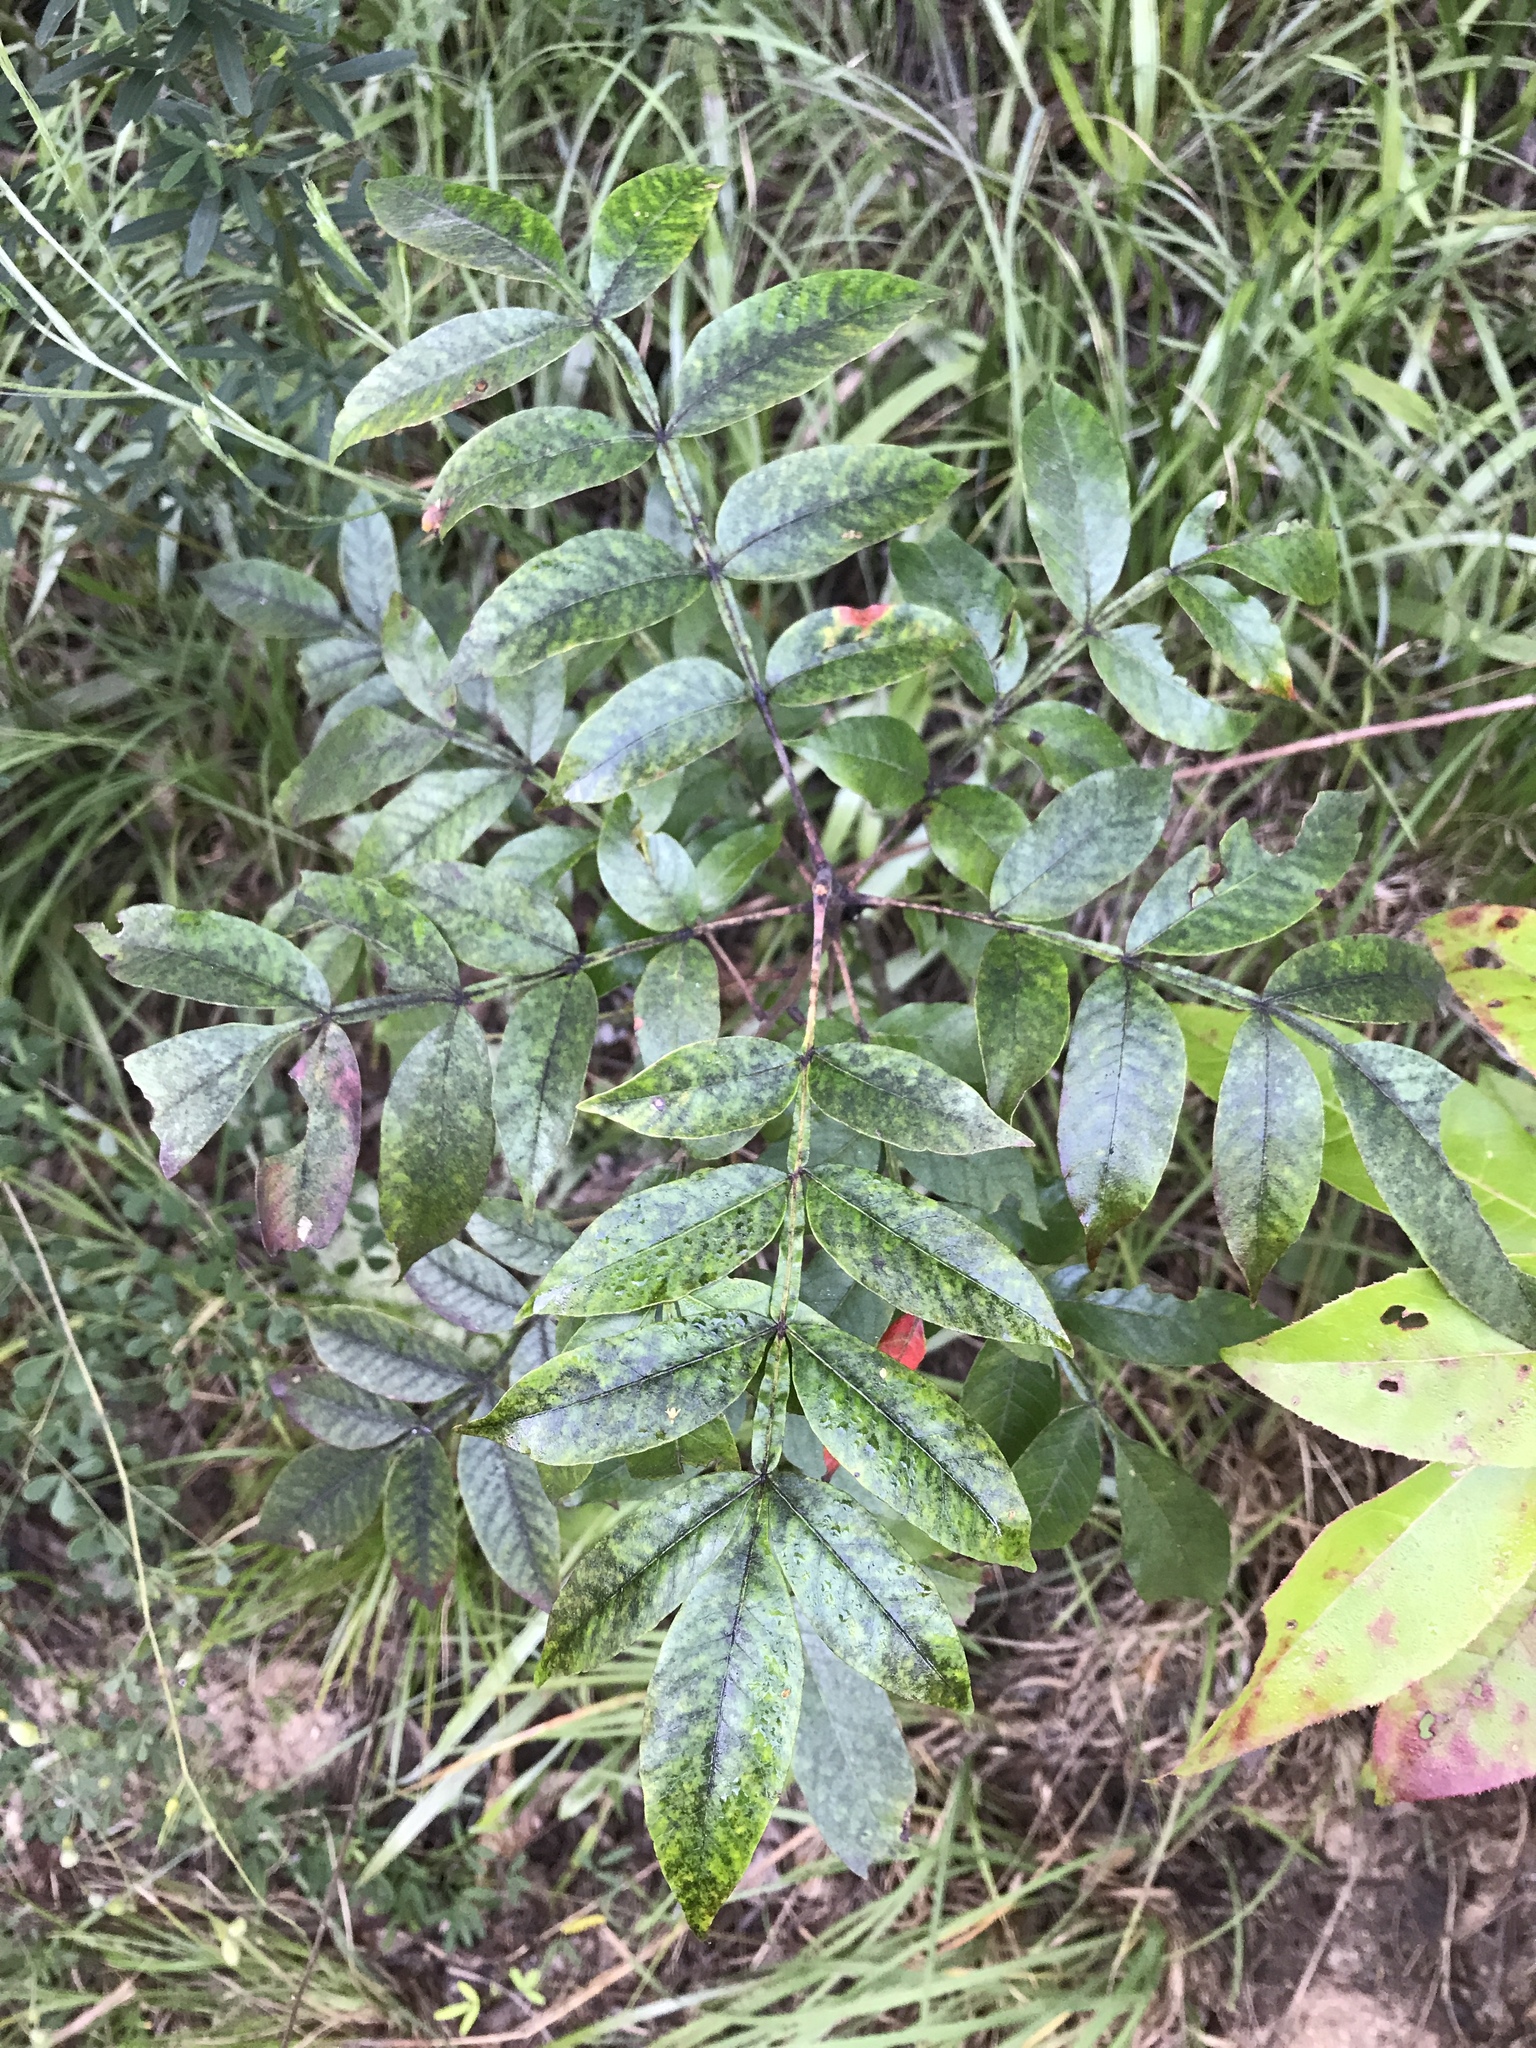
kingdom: Plantae
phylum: Tracheophyta
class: Magnoliopsida
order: Sapindales
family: Anacardiaceae
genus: Rhus
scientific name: Rhus copallina
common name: Shining sumac
